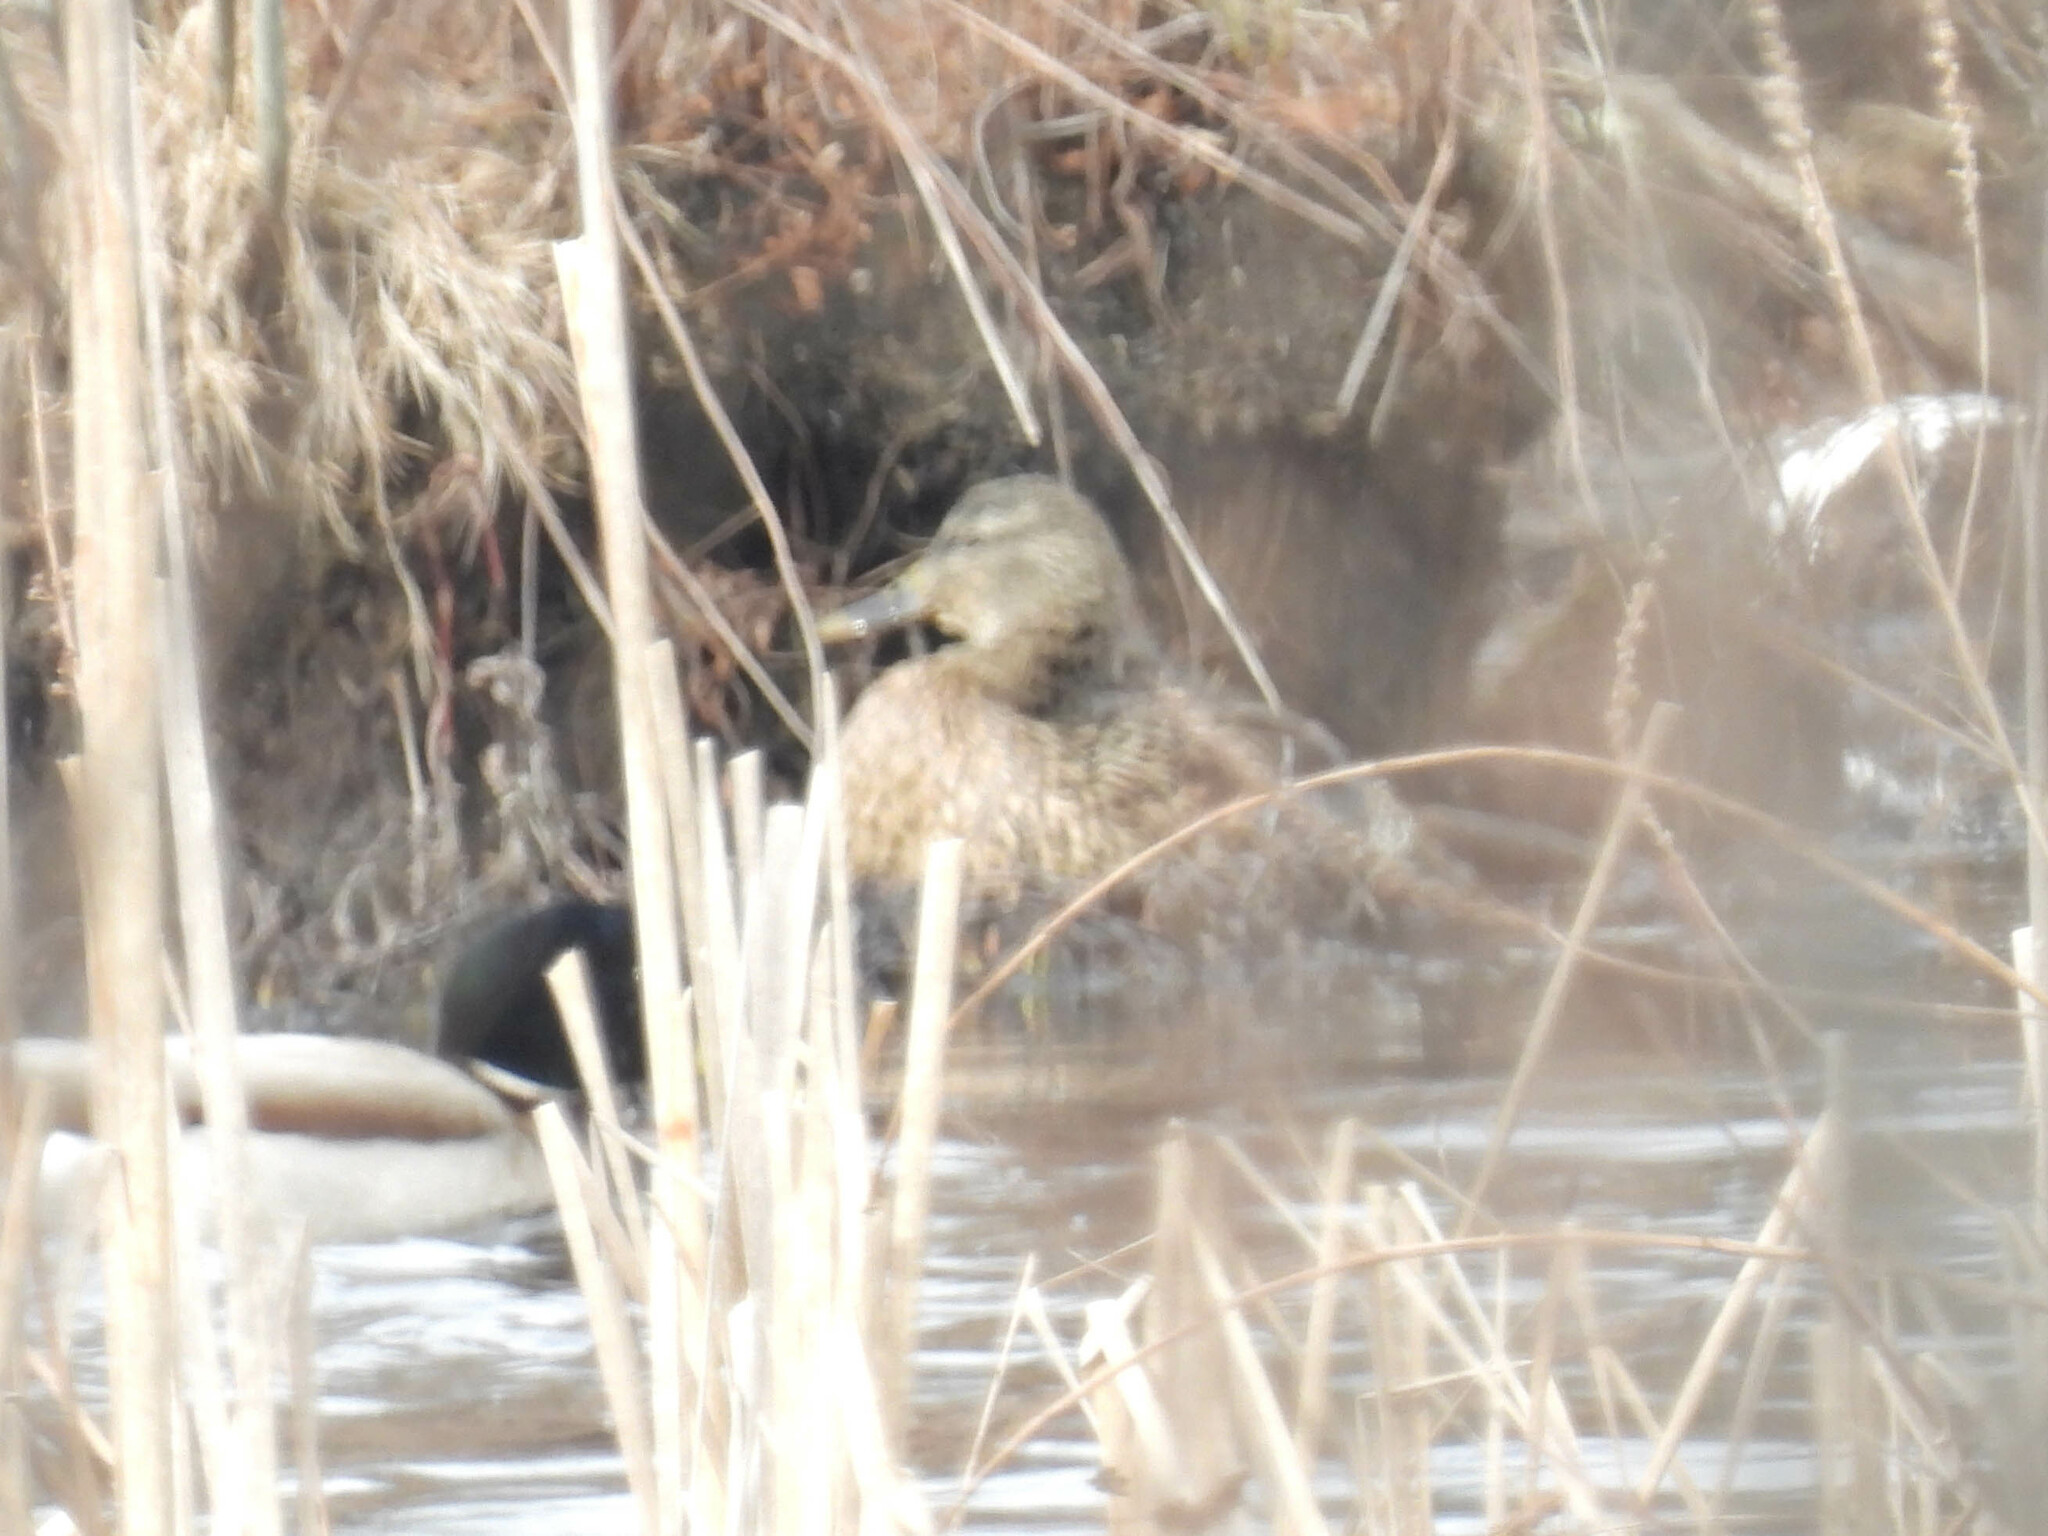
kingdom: Animalia
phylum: Chordata
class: Aves
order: Anseriformes
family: Anatidae
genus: Anas
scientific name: Anas platyrhynchos
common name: Mallard
